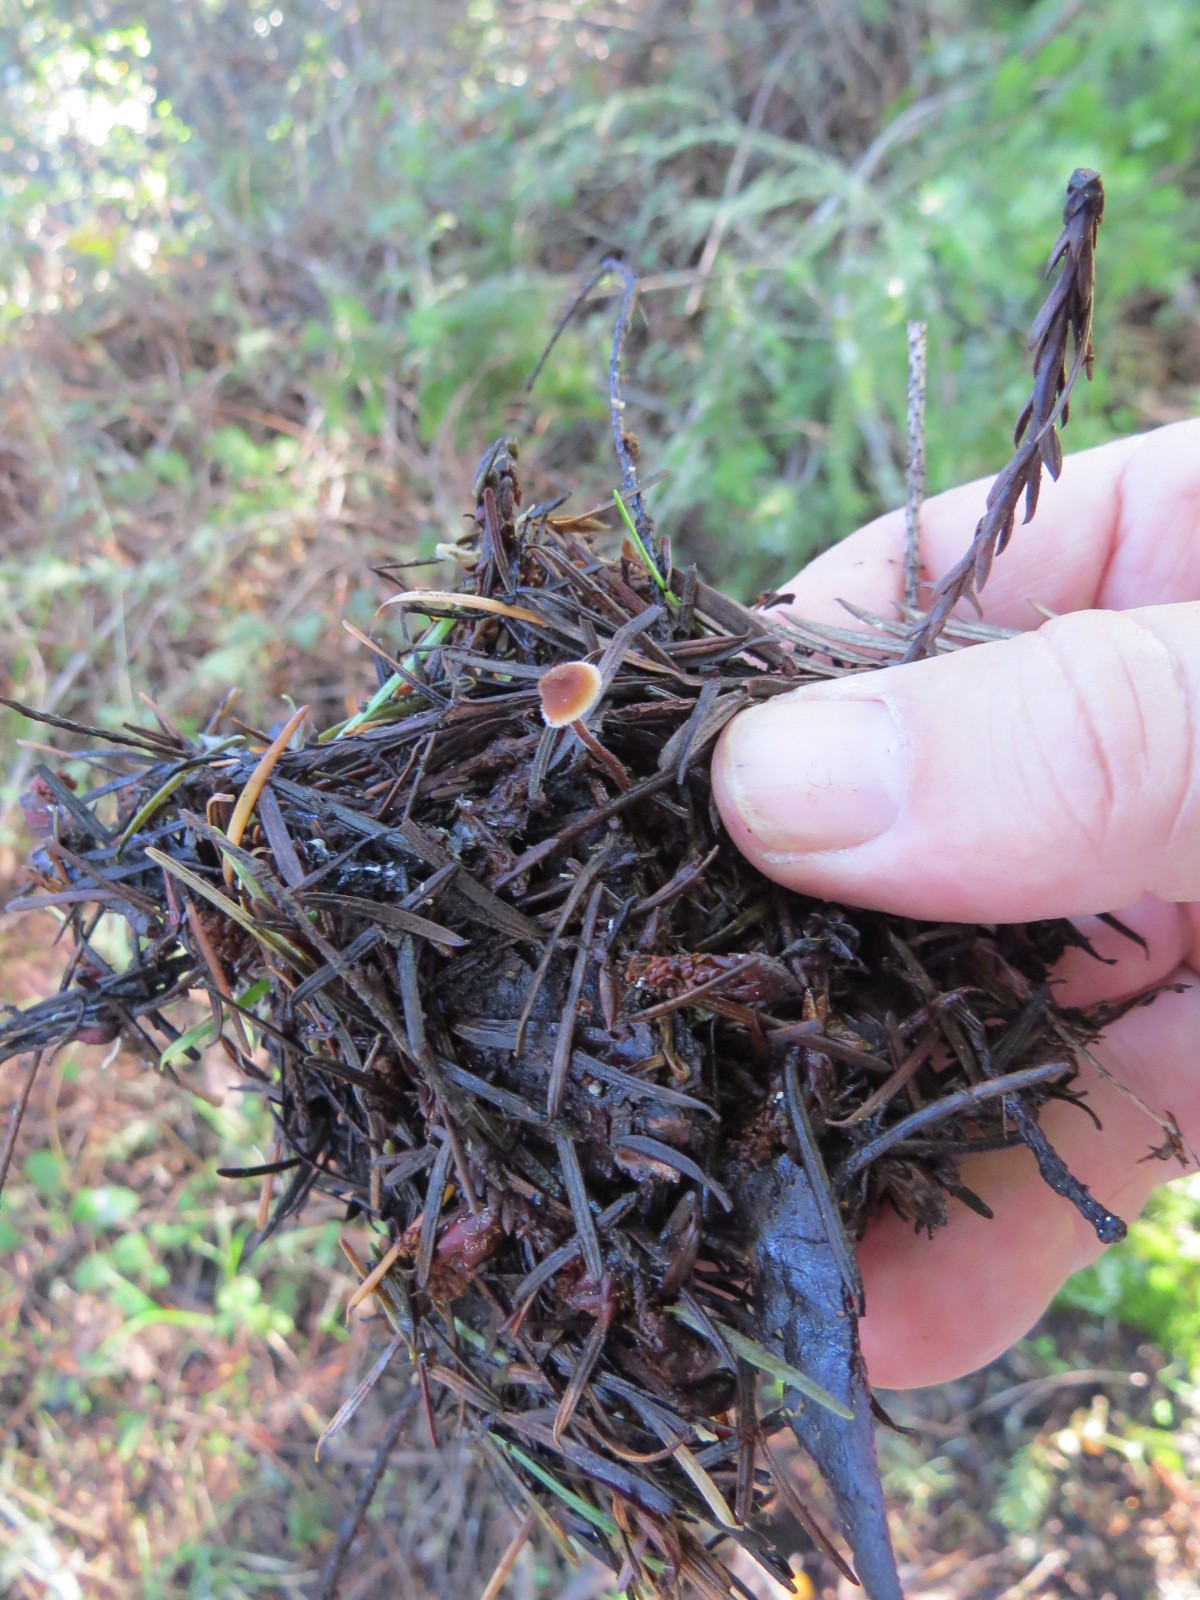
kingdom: Fungi
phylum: Basidiomycota
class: Agaricomycetes
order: Russulales
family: Auriscalpiaceae
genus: Auriscalpium
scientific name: Auriscalpium vulgare
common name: Earpick fungus
